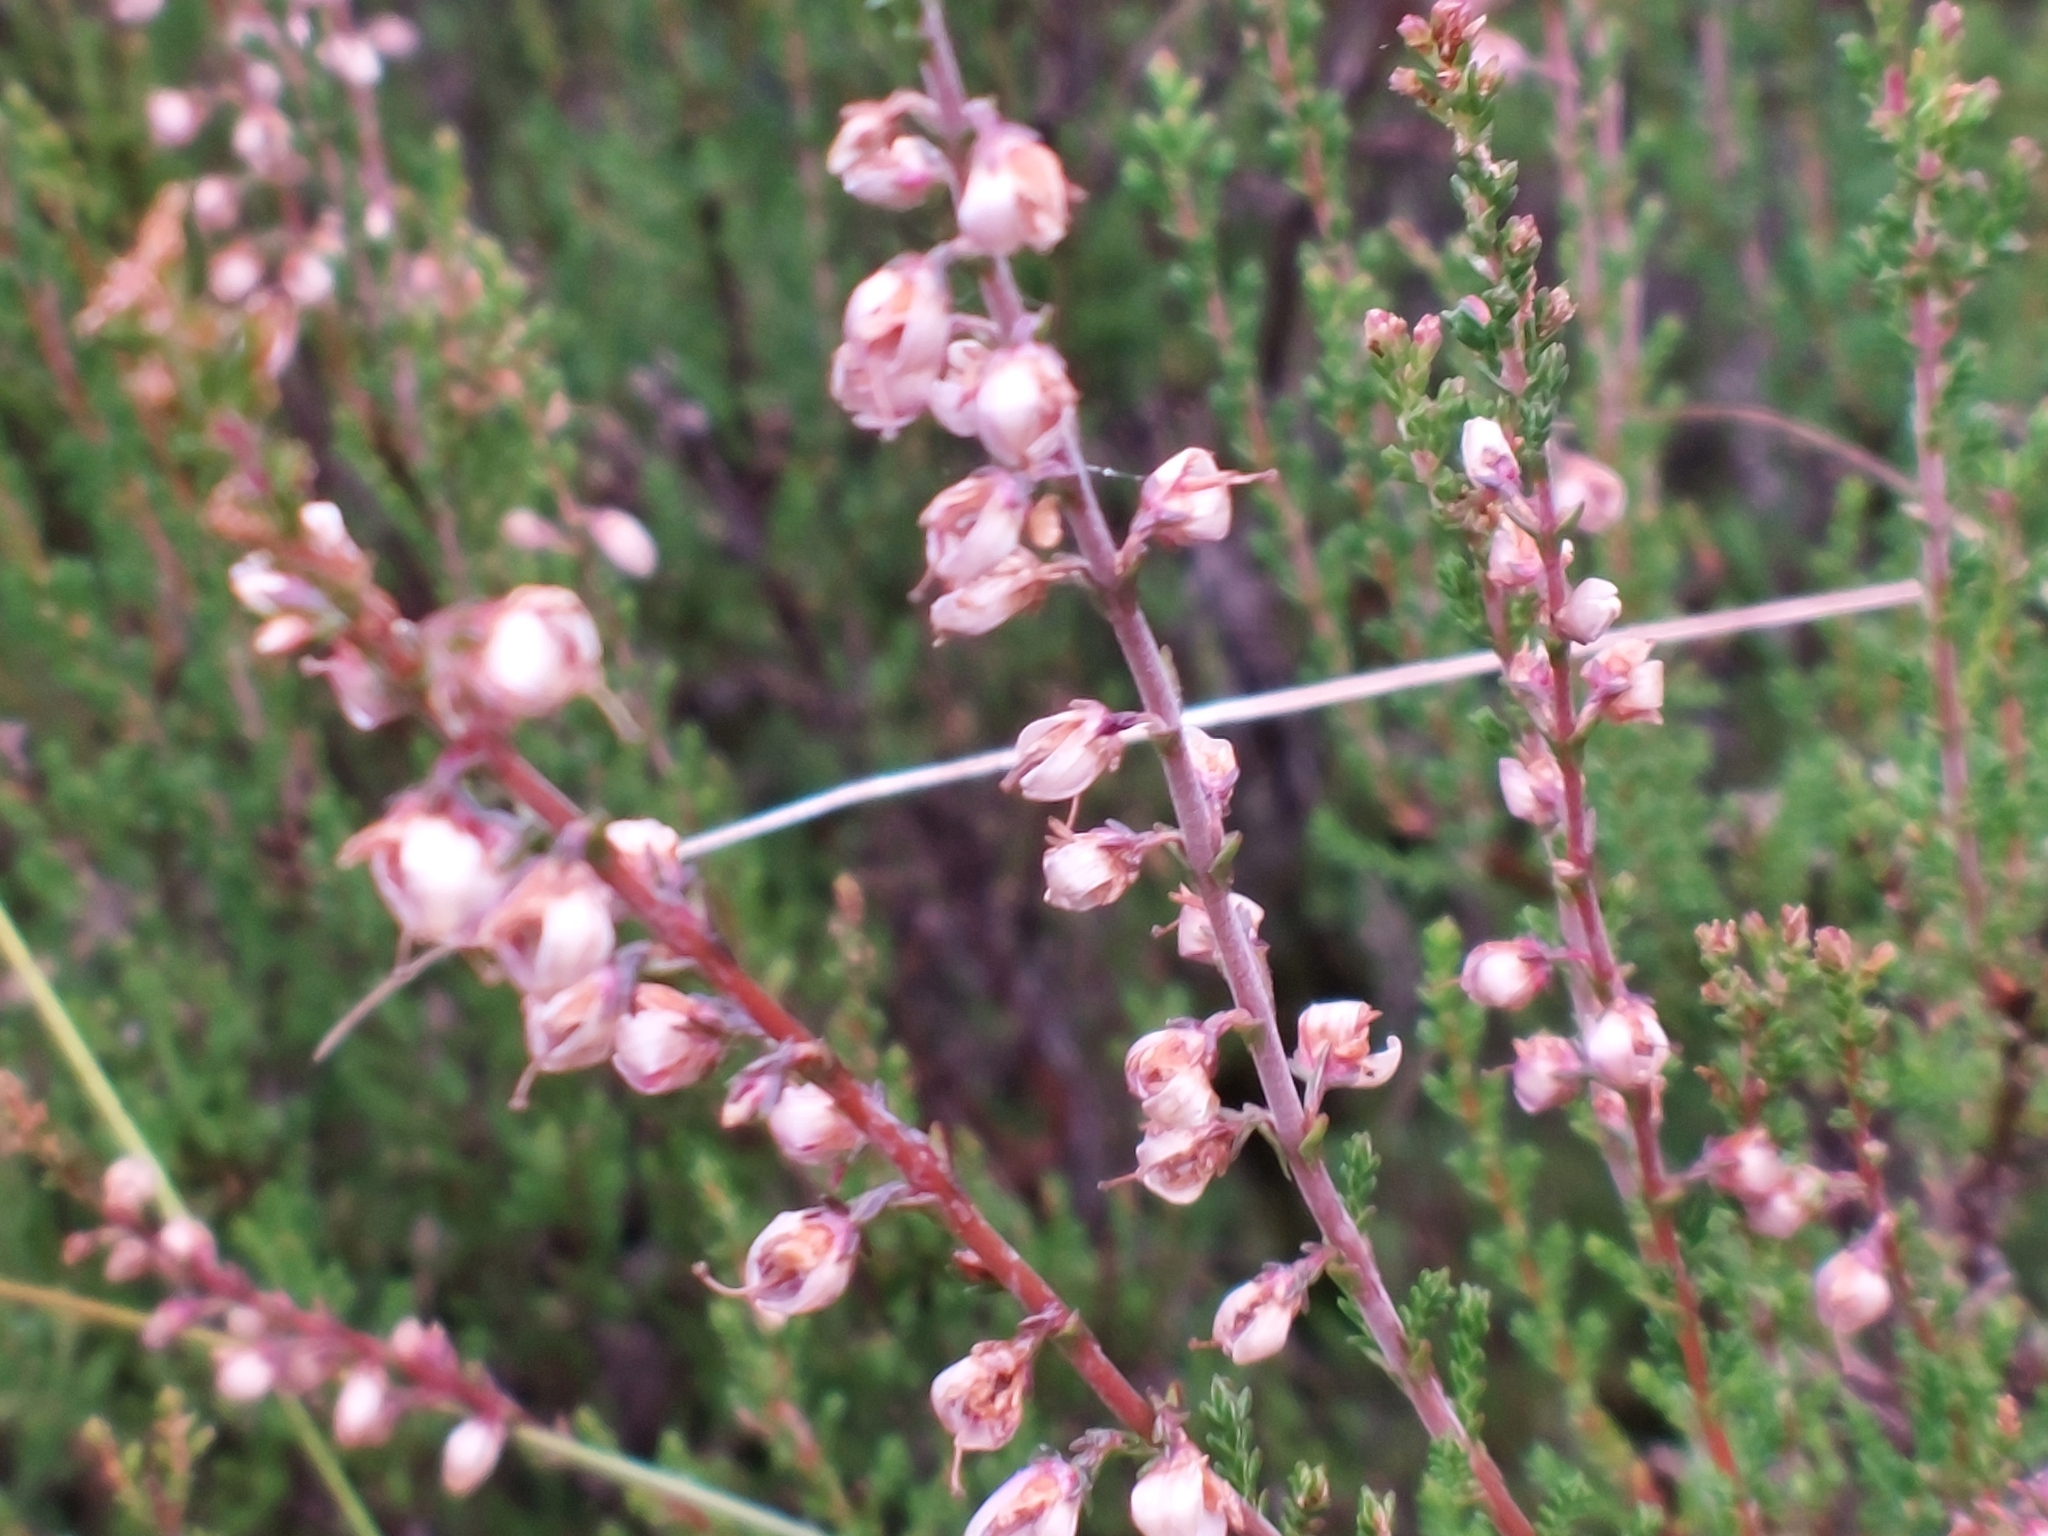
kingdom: Plantae
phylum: Tracheophyta
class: Magnoliopsida
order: Ericales
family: Ericaceae
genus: Calluna
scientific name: Calluna vulgaris
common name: Heather
